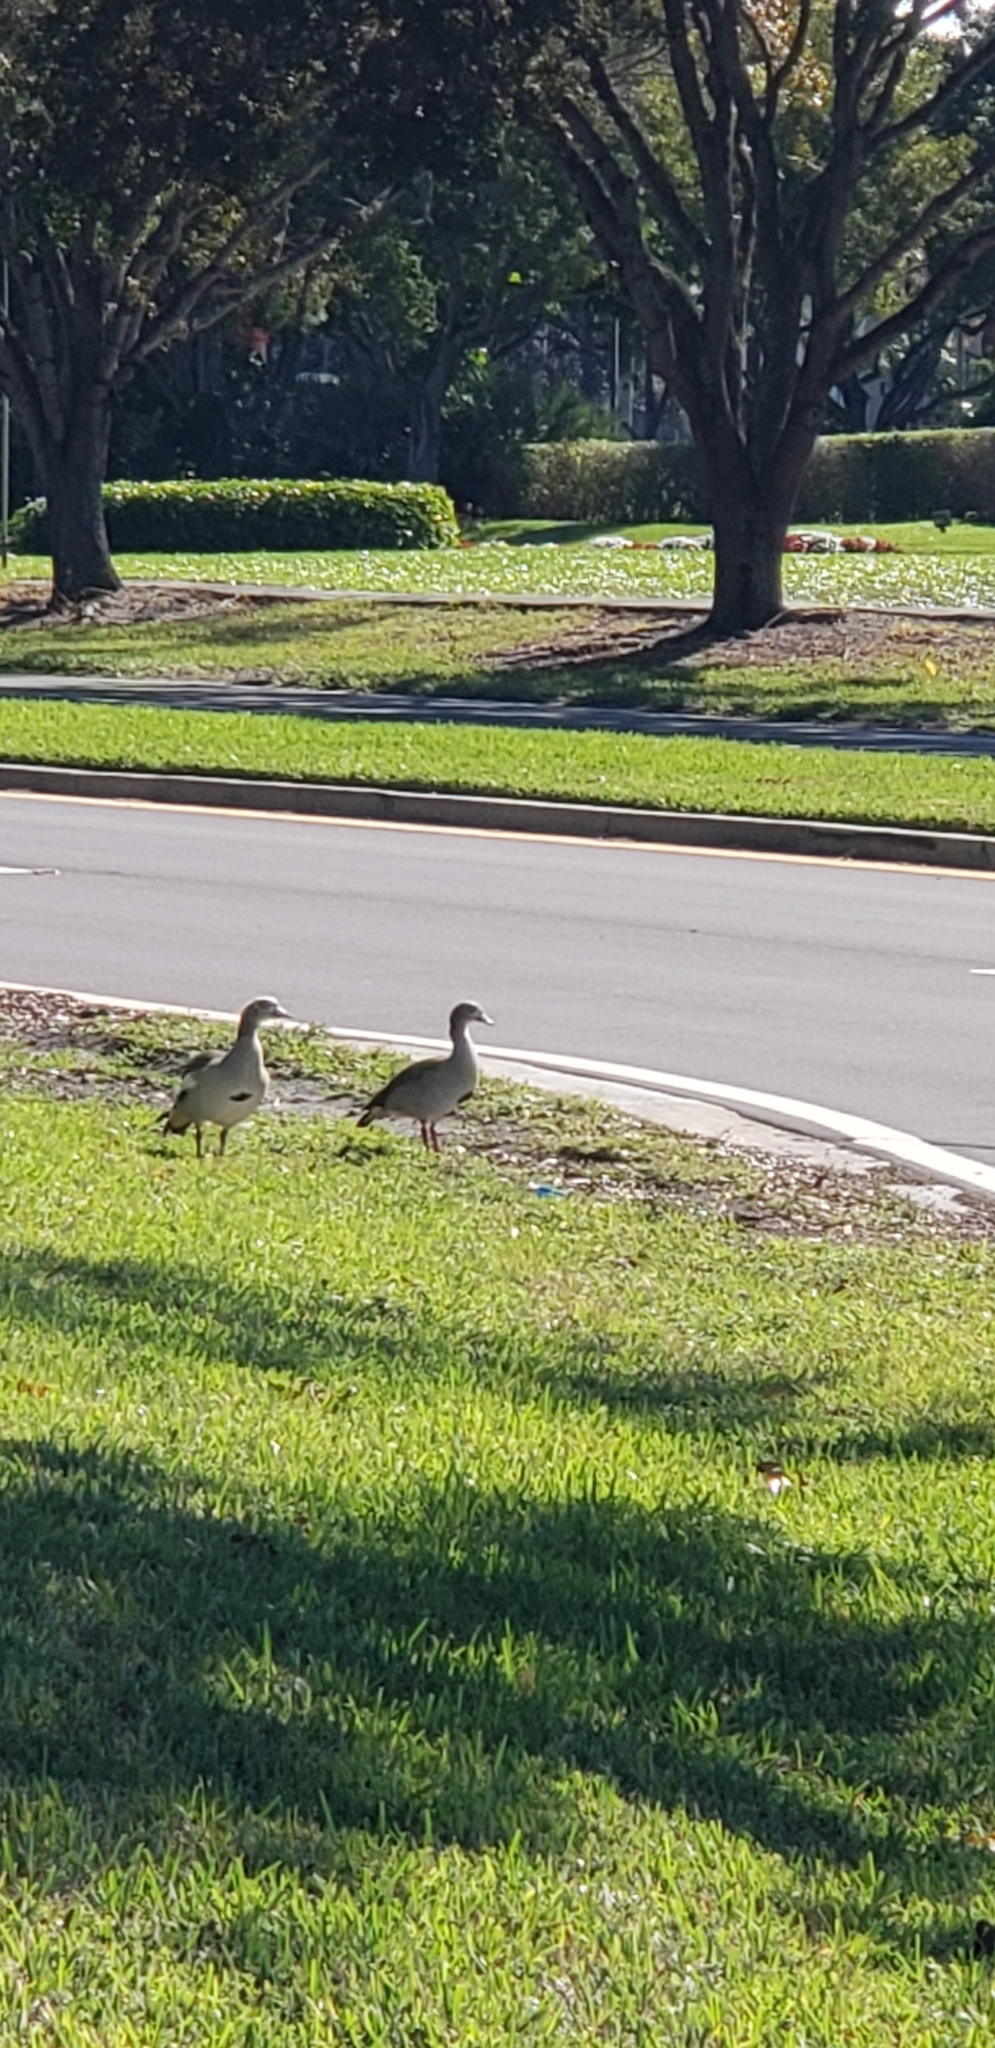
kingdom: Animalia
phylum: Chordata
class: Aves
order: Anseriformes
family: Anatidae
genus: Alopochen
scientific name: Alopochen aegyptiaca
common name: Egyptian goose
